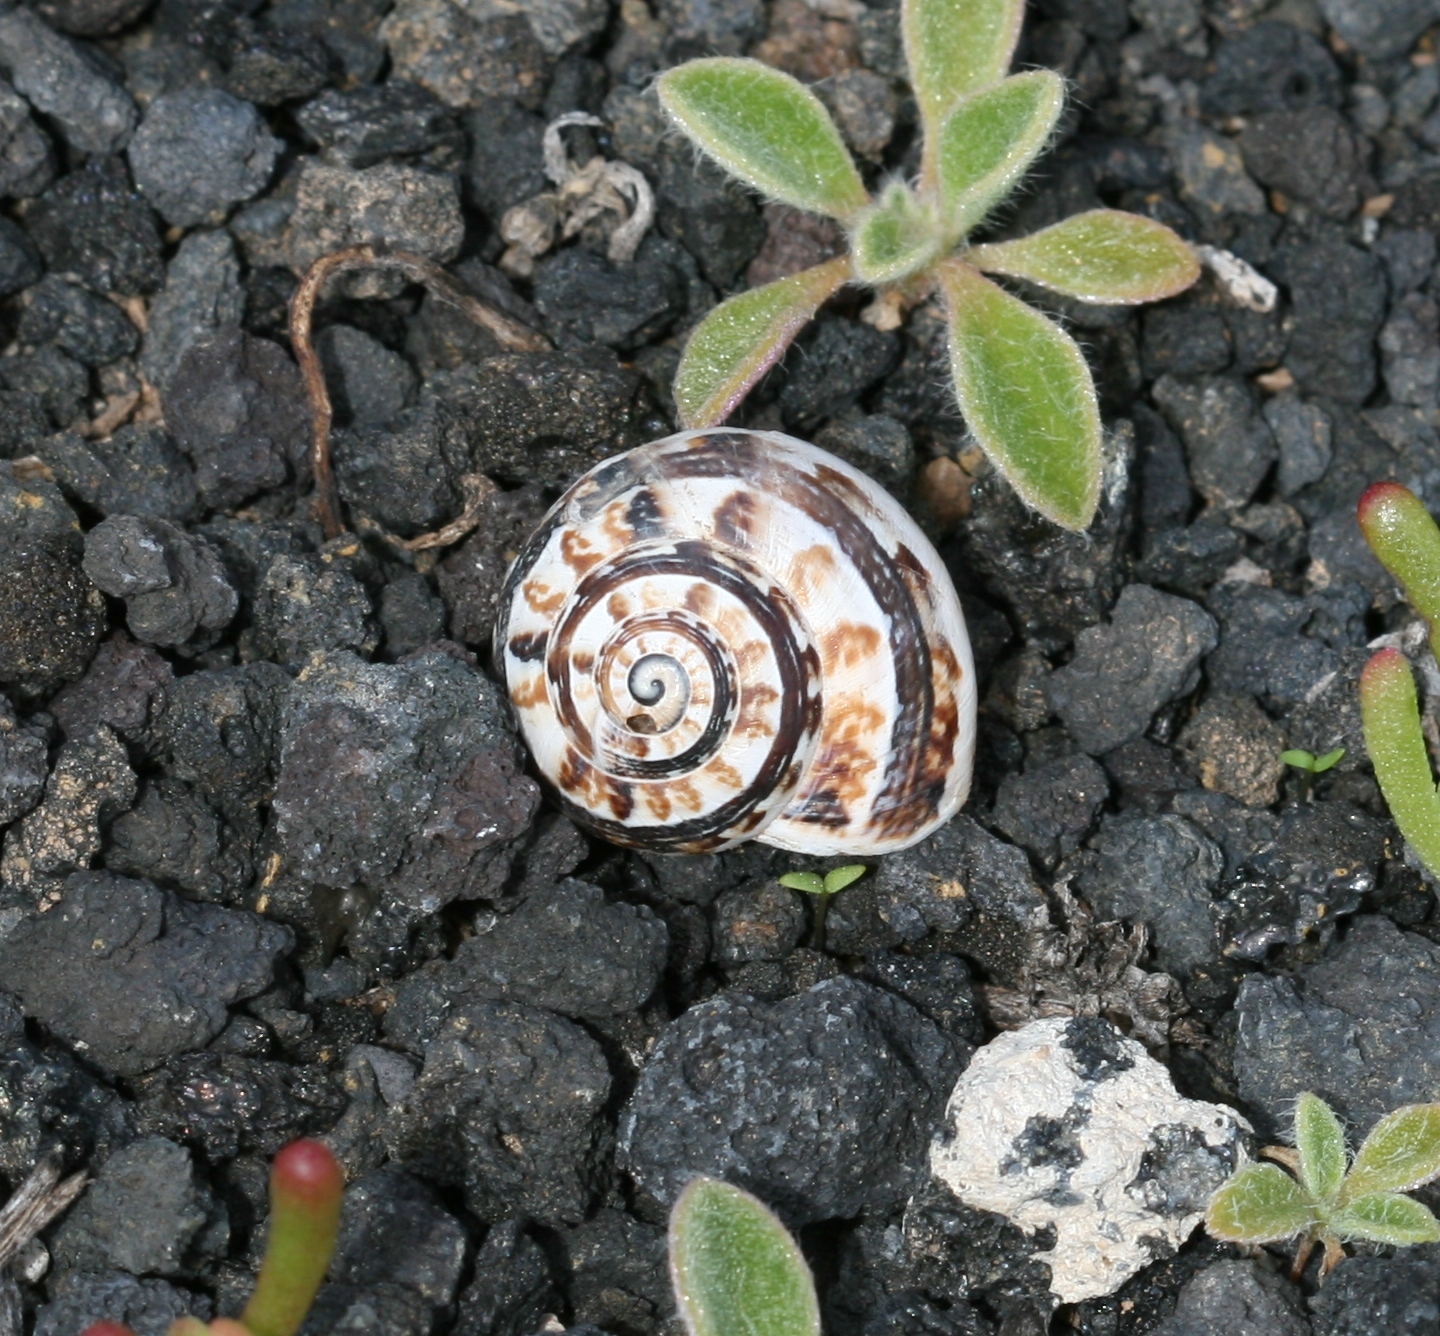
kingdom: Animalia
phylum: Mollusca
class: Gastropoda
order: Stylommatophora
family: Helicidae
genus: Theba
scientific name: Theba geminata
